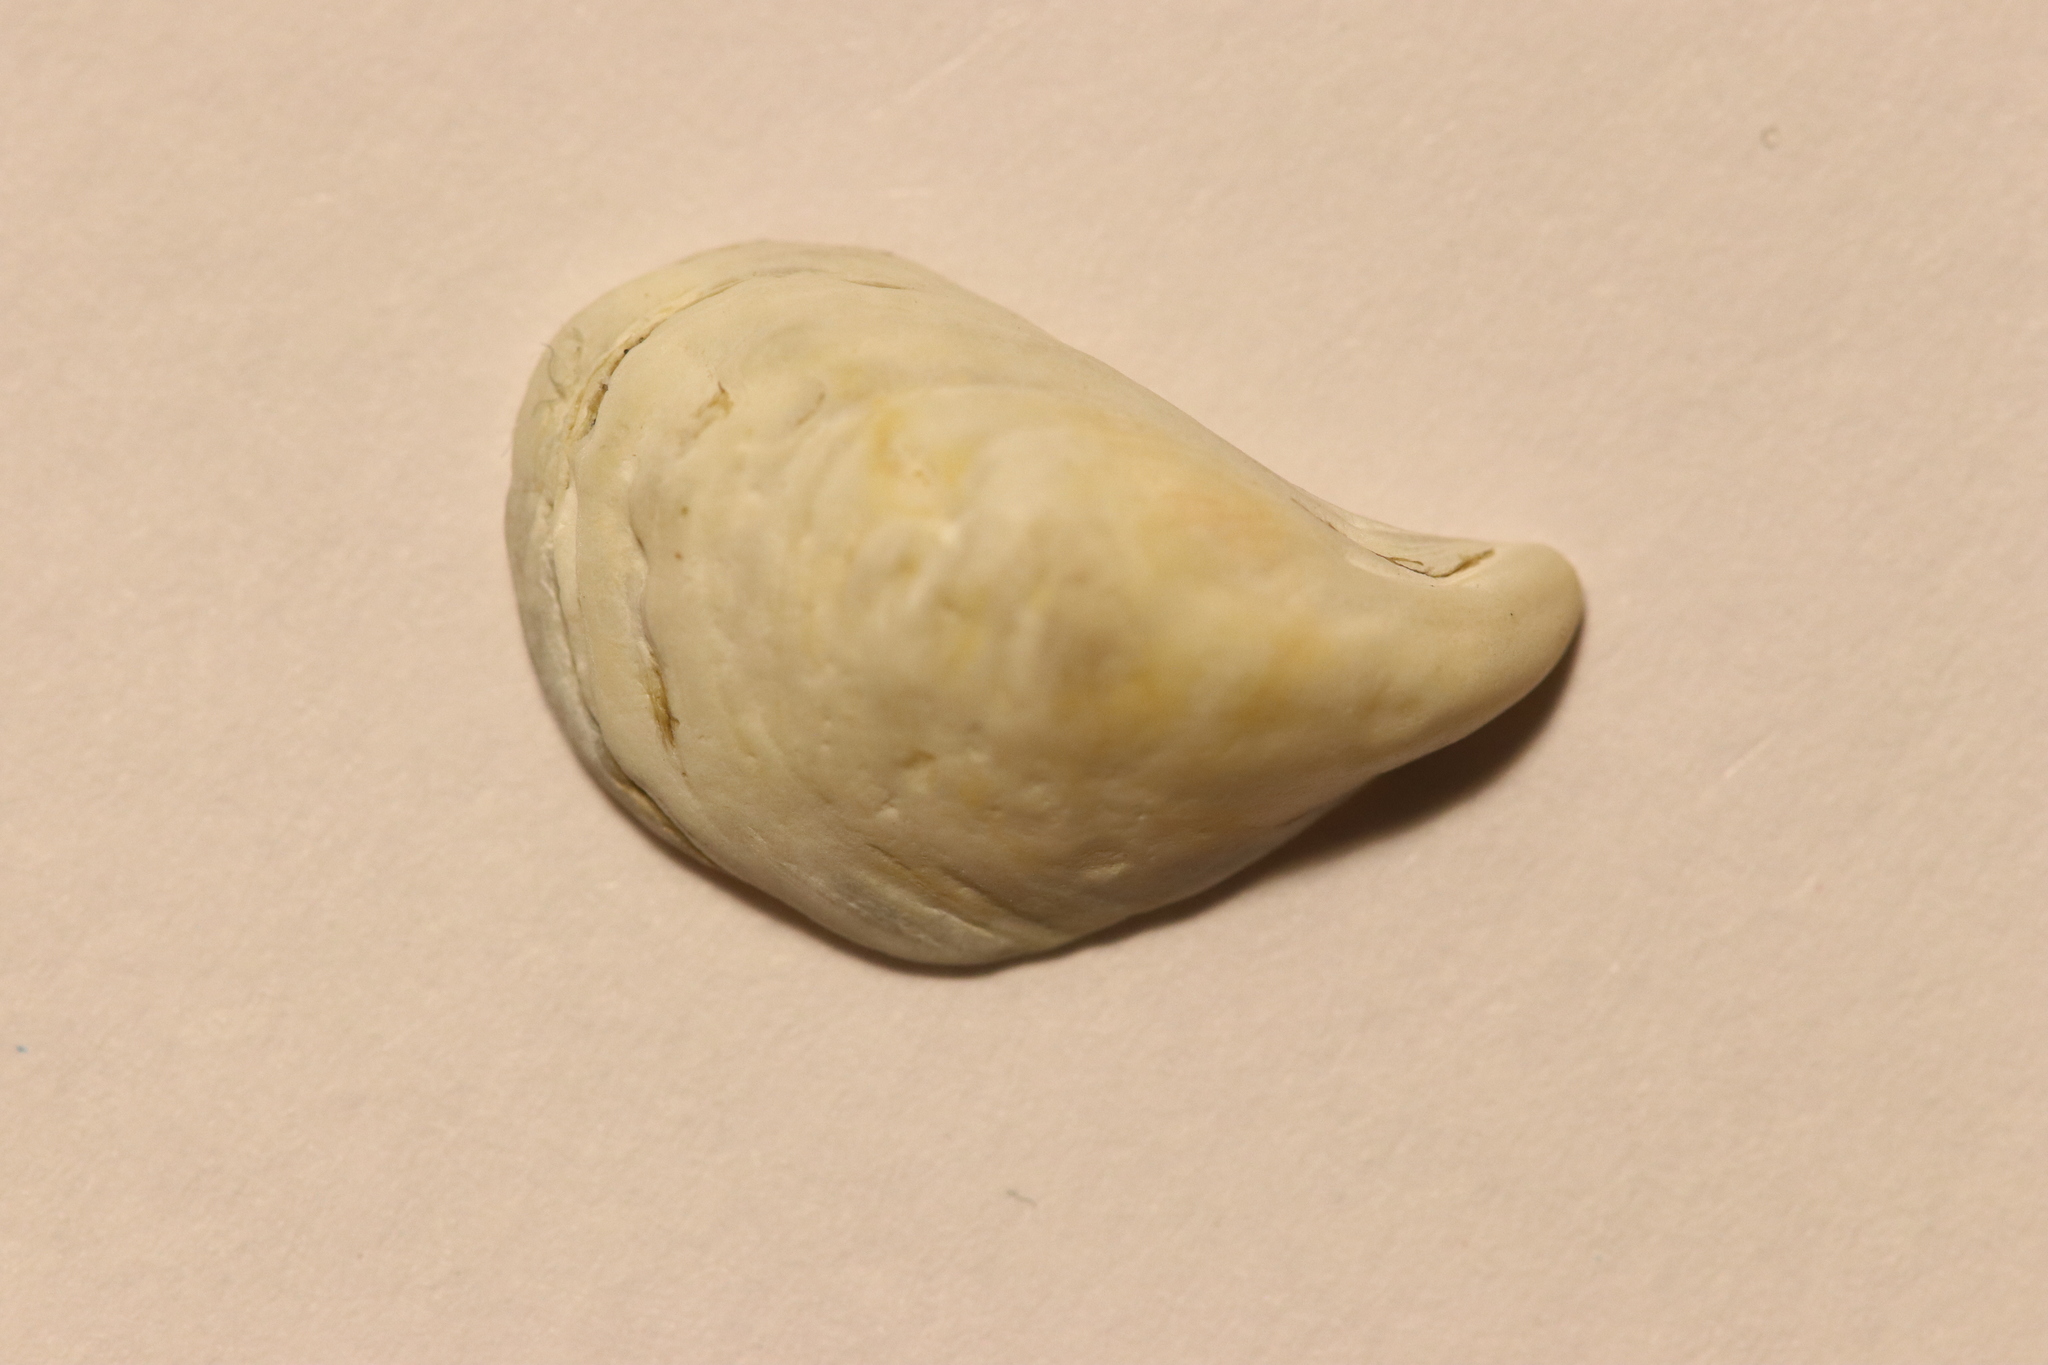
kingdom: Animalia
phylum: Mollusca
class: Bivalvia
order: Myida
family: Dreissenidae
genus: Dreissena
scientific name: Dreissena bugensis
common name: Quagga mussel
